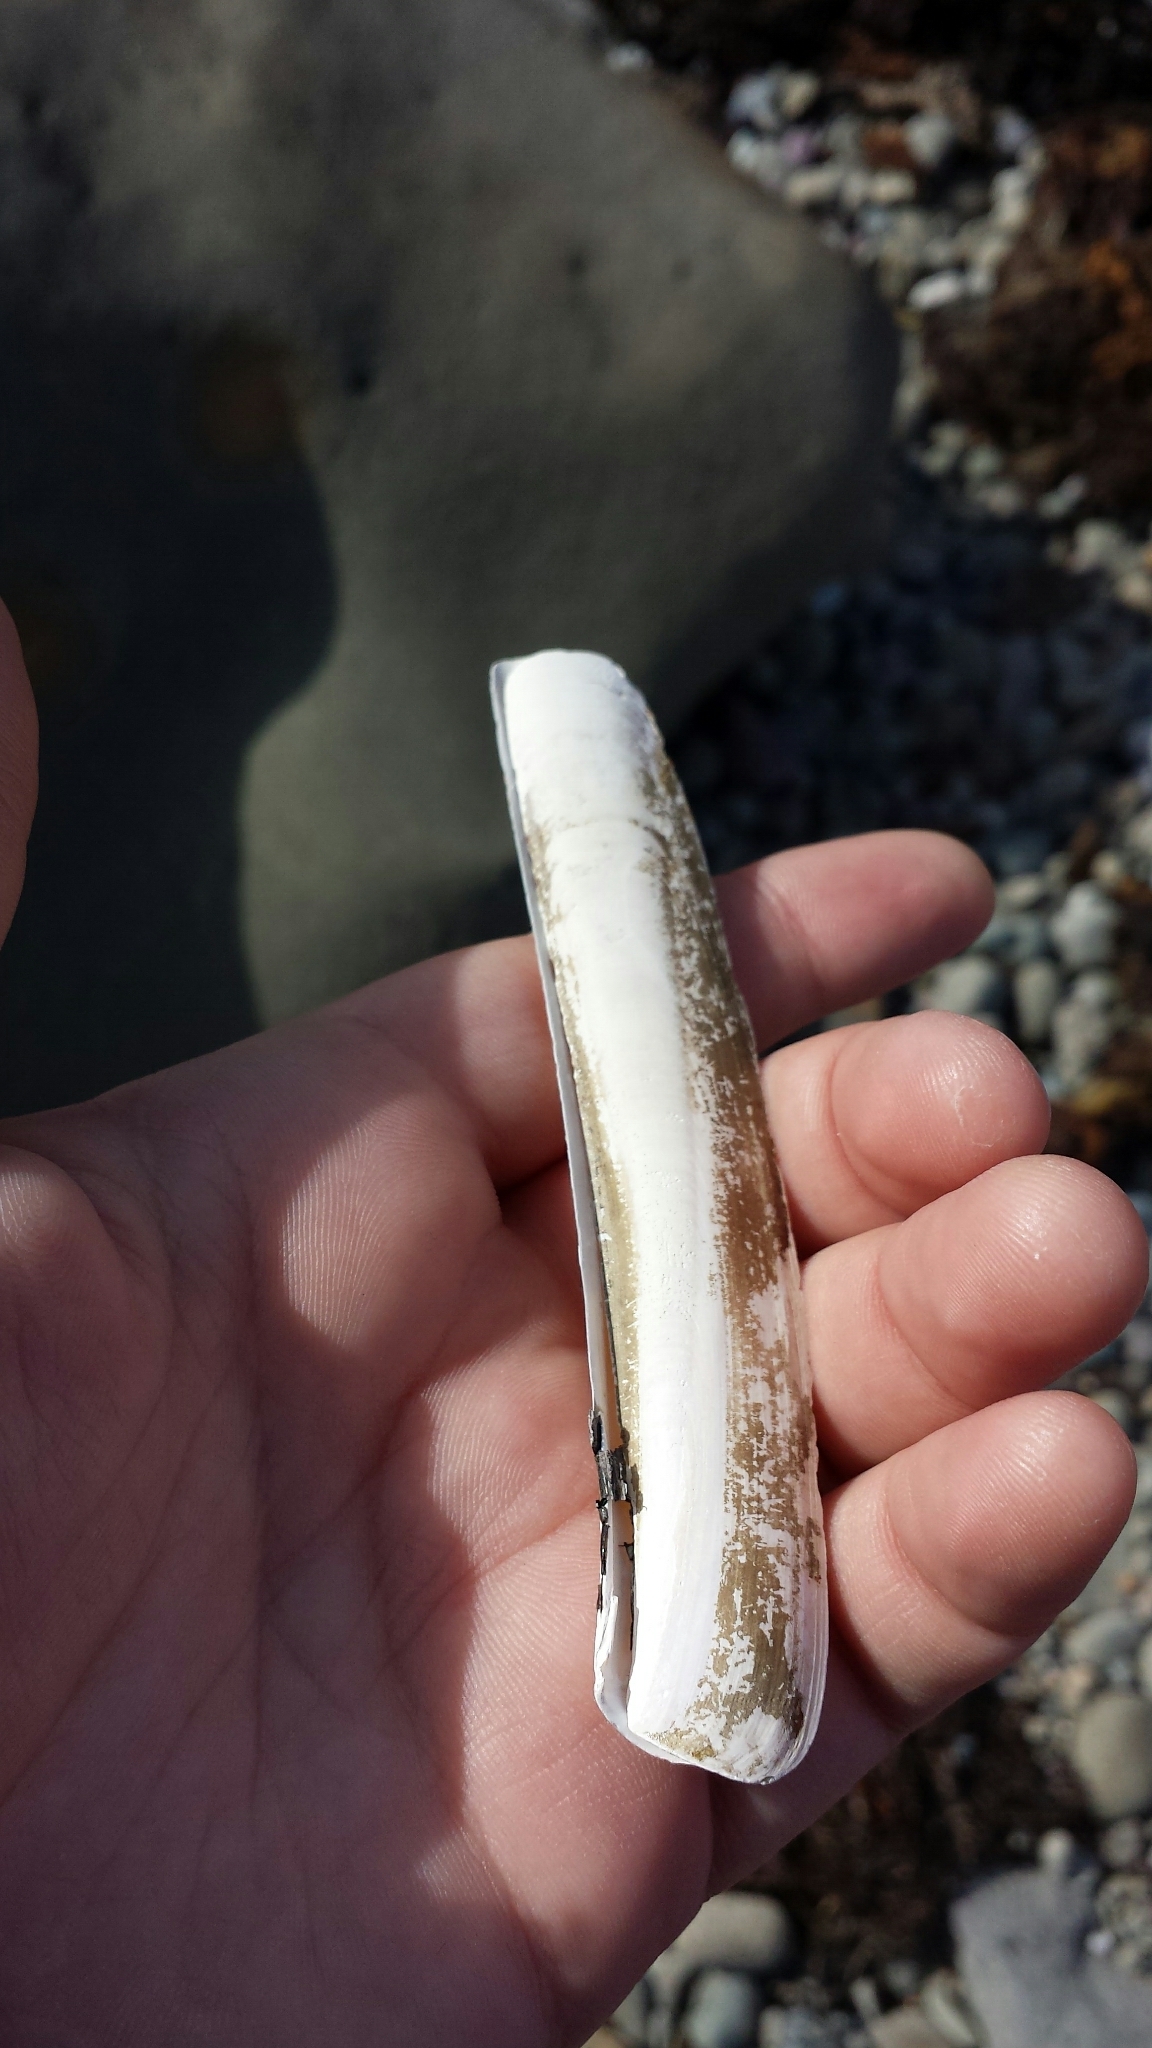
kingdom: Animalia
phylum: Mollusca
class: Bivalvia
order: Adapedonta
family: Pharidae
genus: Ensis
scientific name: Ensis leei
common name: American jack knife clam
